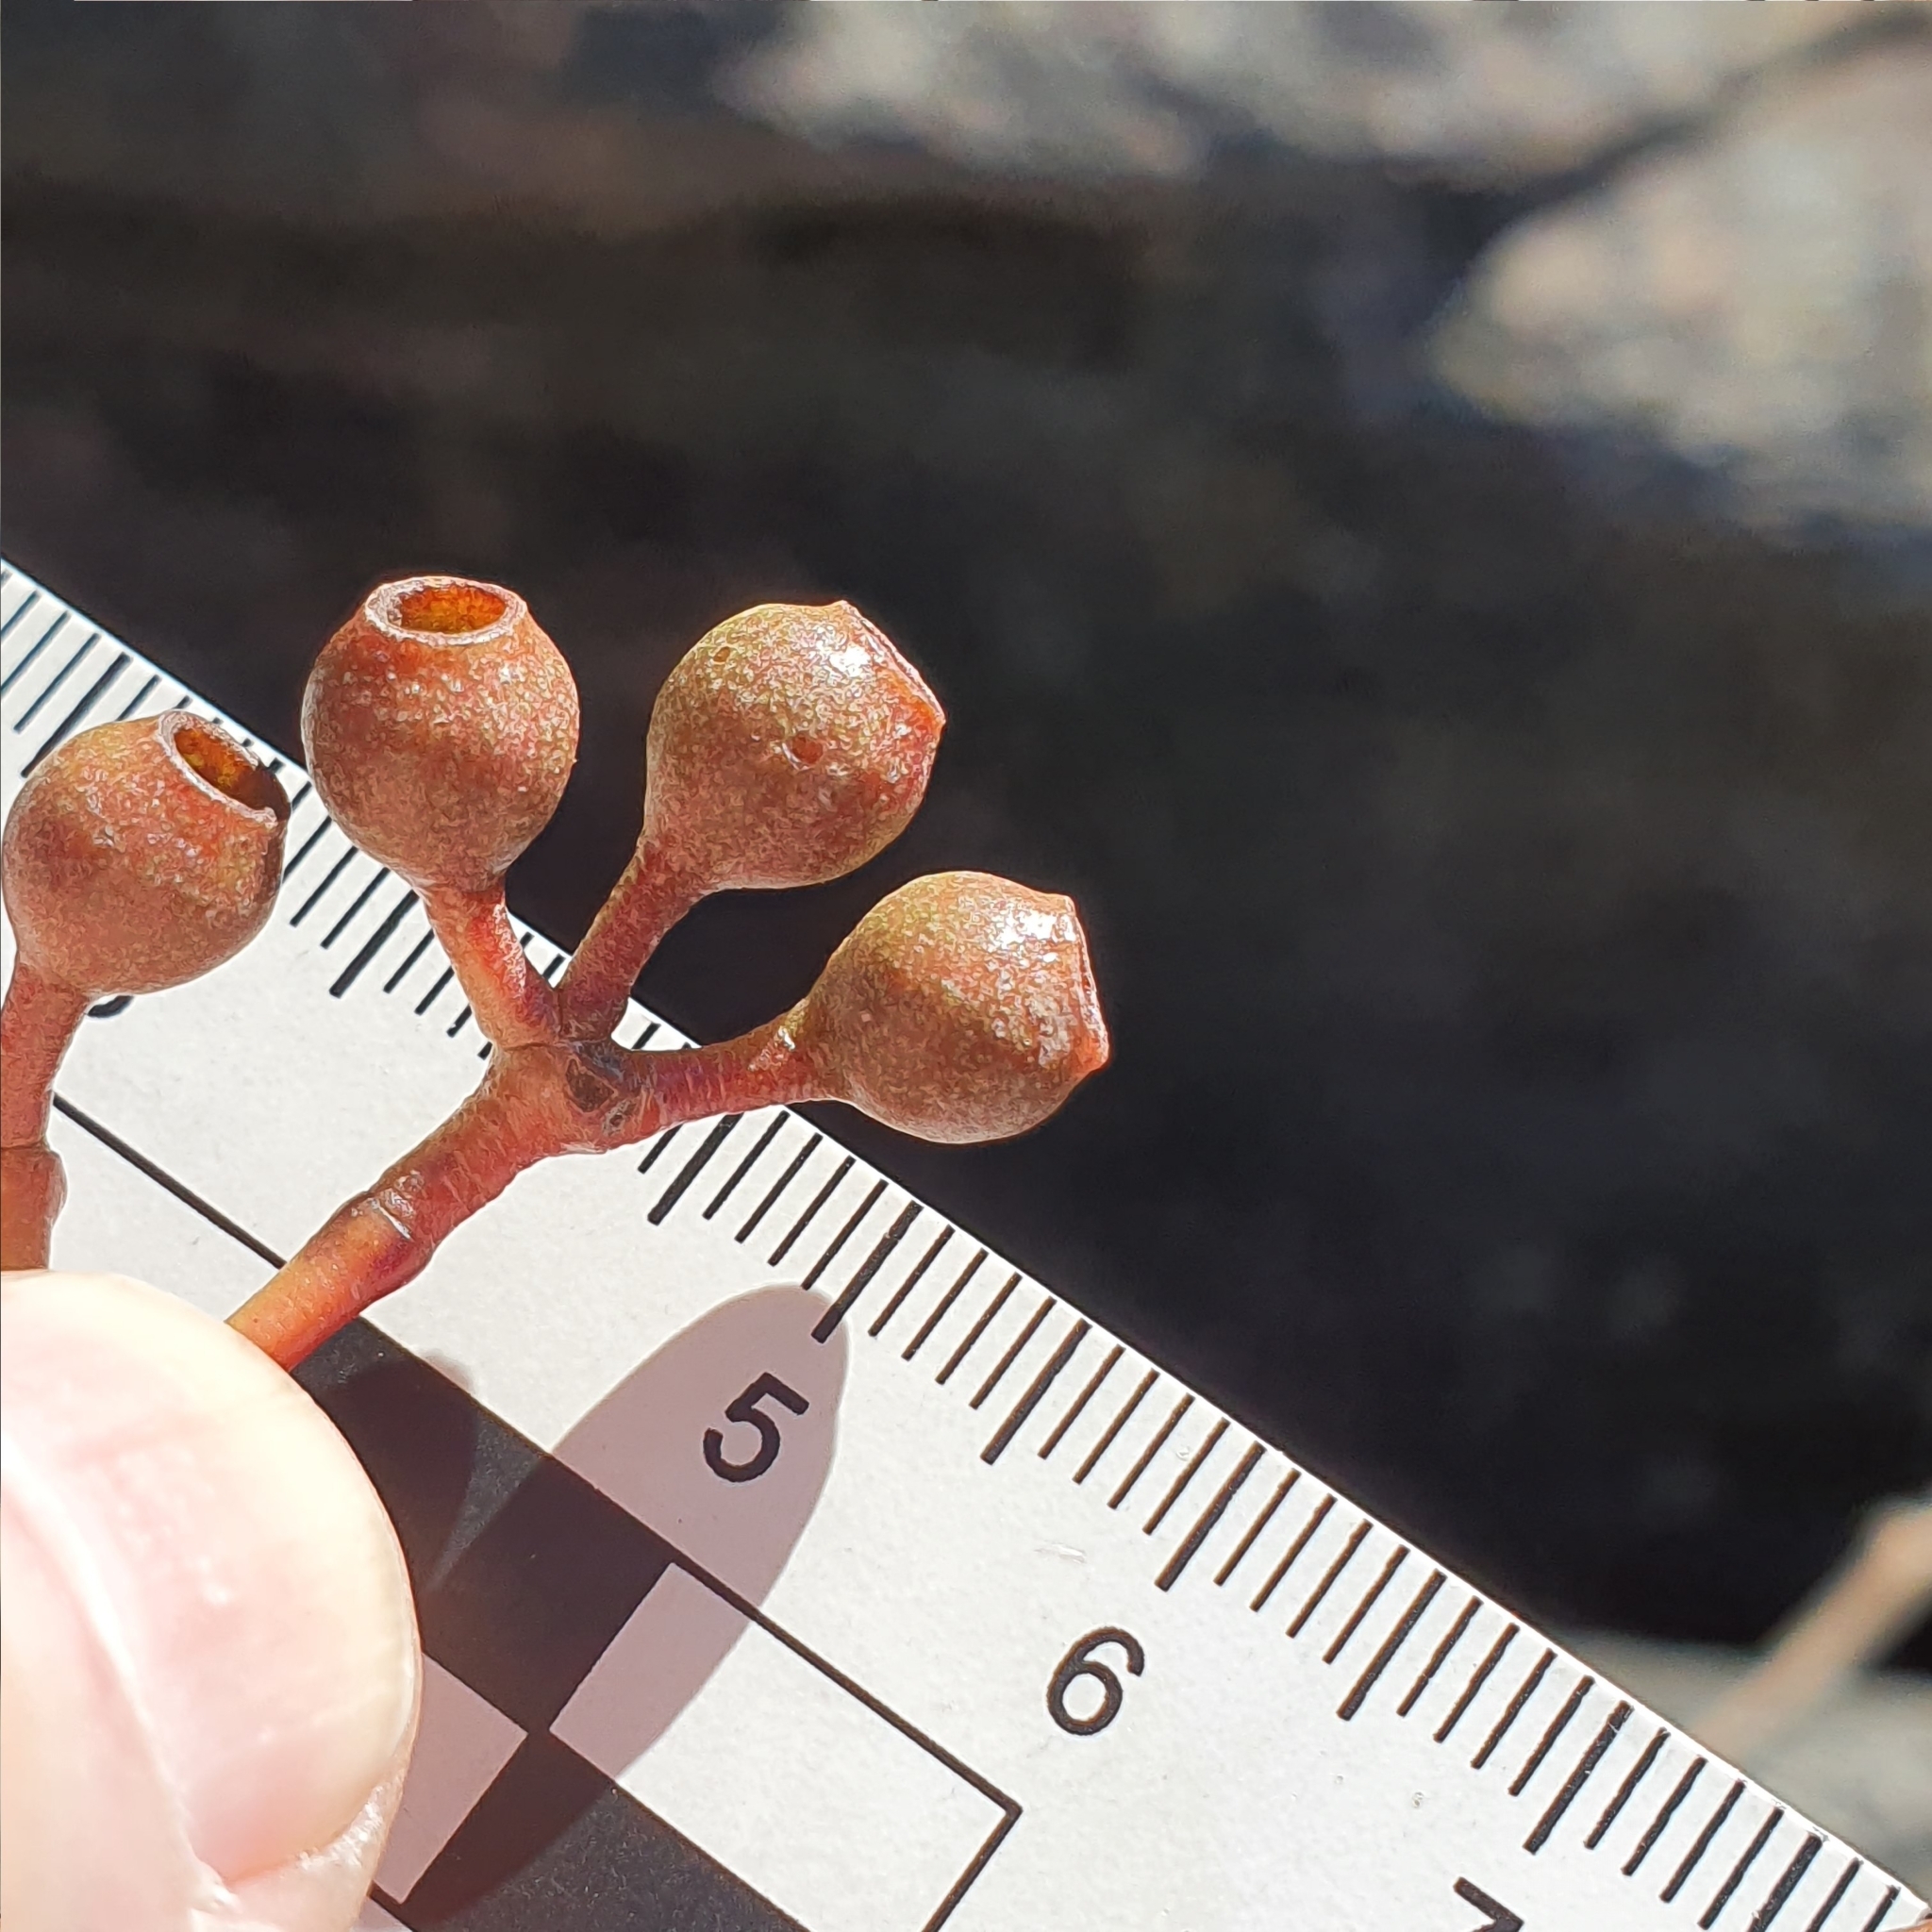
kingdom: Plantae
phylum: Tracheophyta
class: Magnoliopsida
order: Myrtales
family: Myrtaceae
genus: Eucalyptus
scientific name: Eucalyptus piperita
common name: Sydney peppermint
